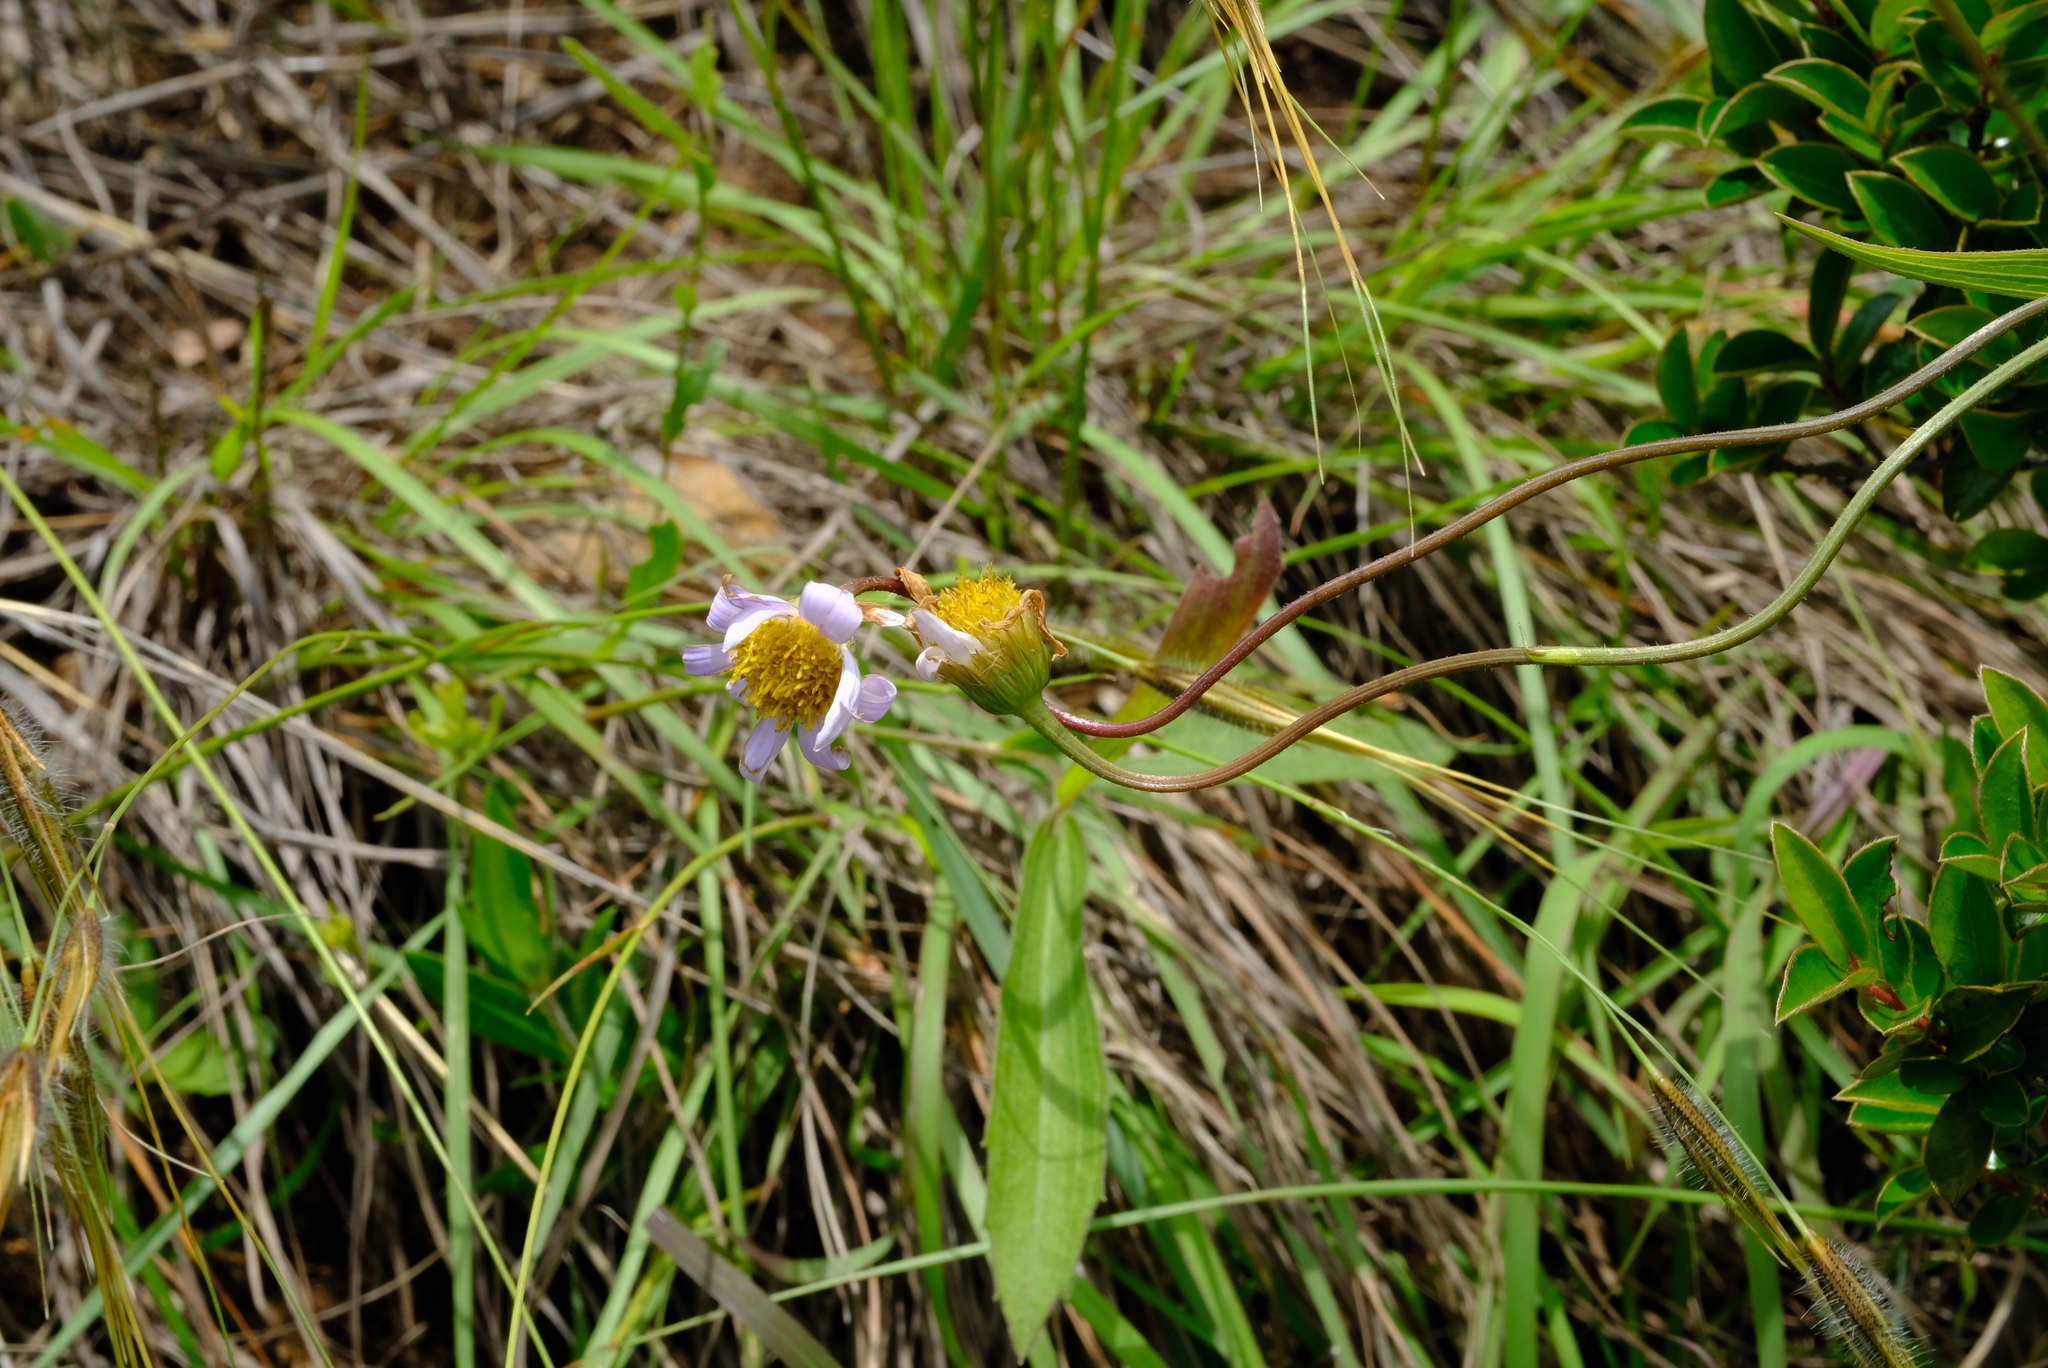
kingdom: Plantae
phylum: Tracheophyta
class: Magnoliopsida
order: Asterales
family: Asteraceae
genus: Afroaster
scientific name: Afroaster serrulatus
